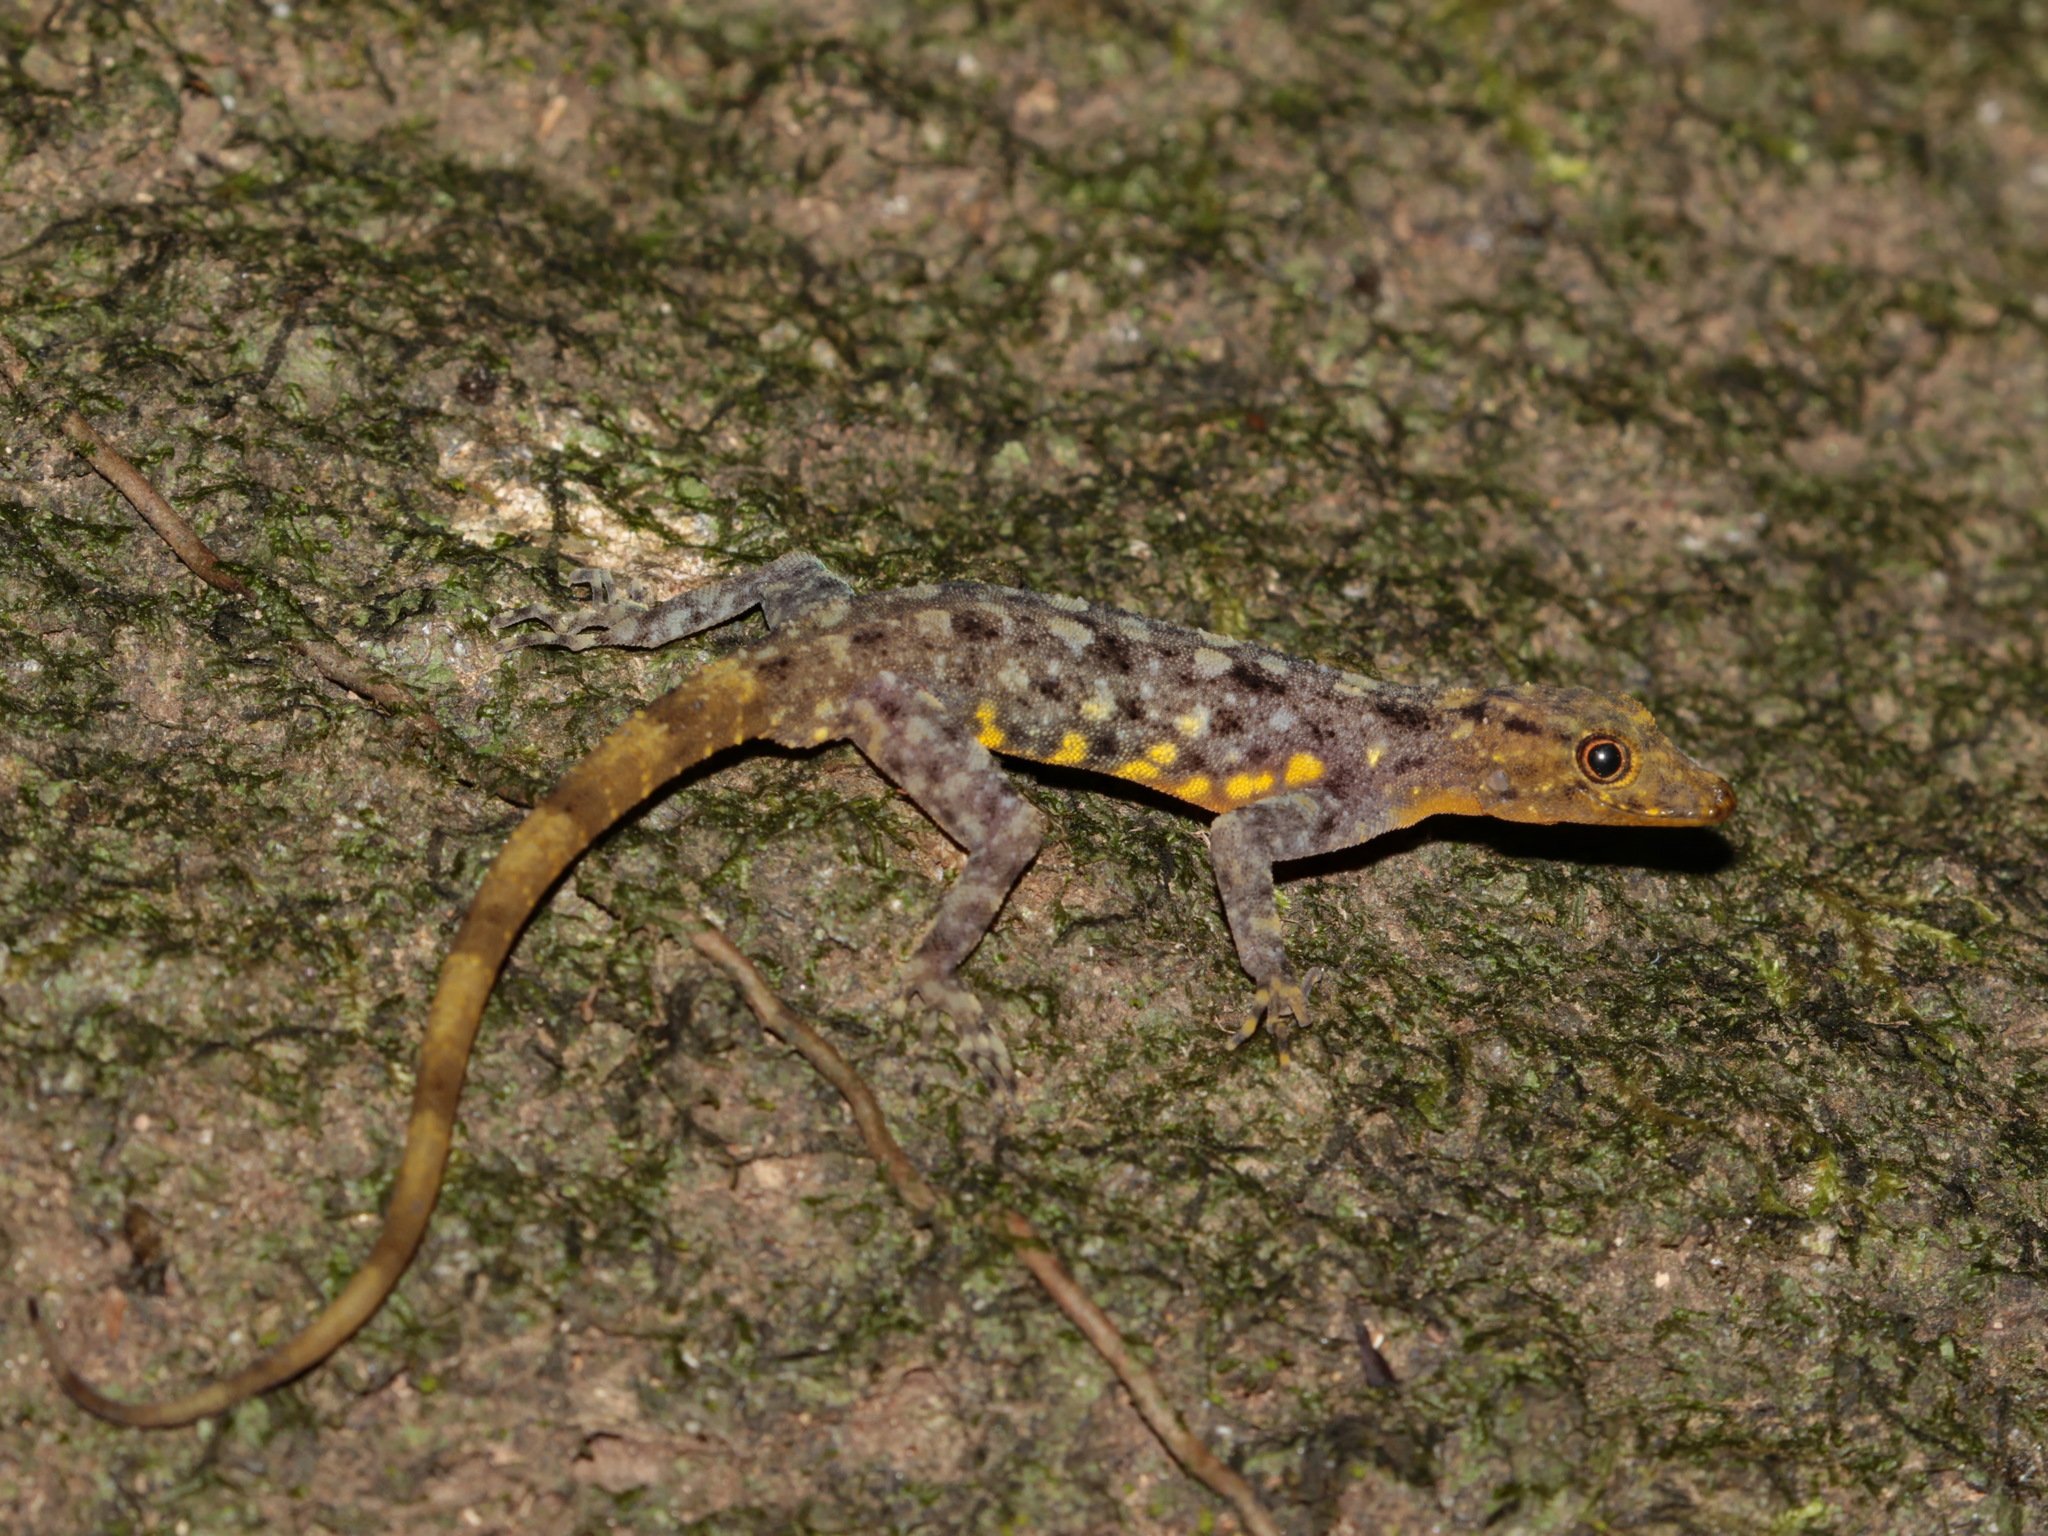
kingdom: Animalia
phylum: Chordata
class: Squamata
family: Gekkonidae
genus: Cnemaspis
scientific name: Cnemaspis chanthaburiensis
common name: Chanthaburi rock gecko
